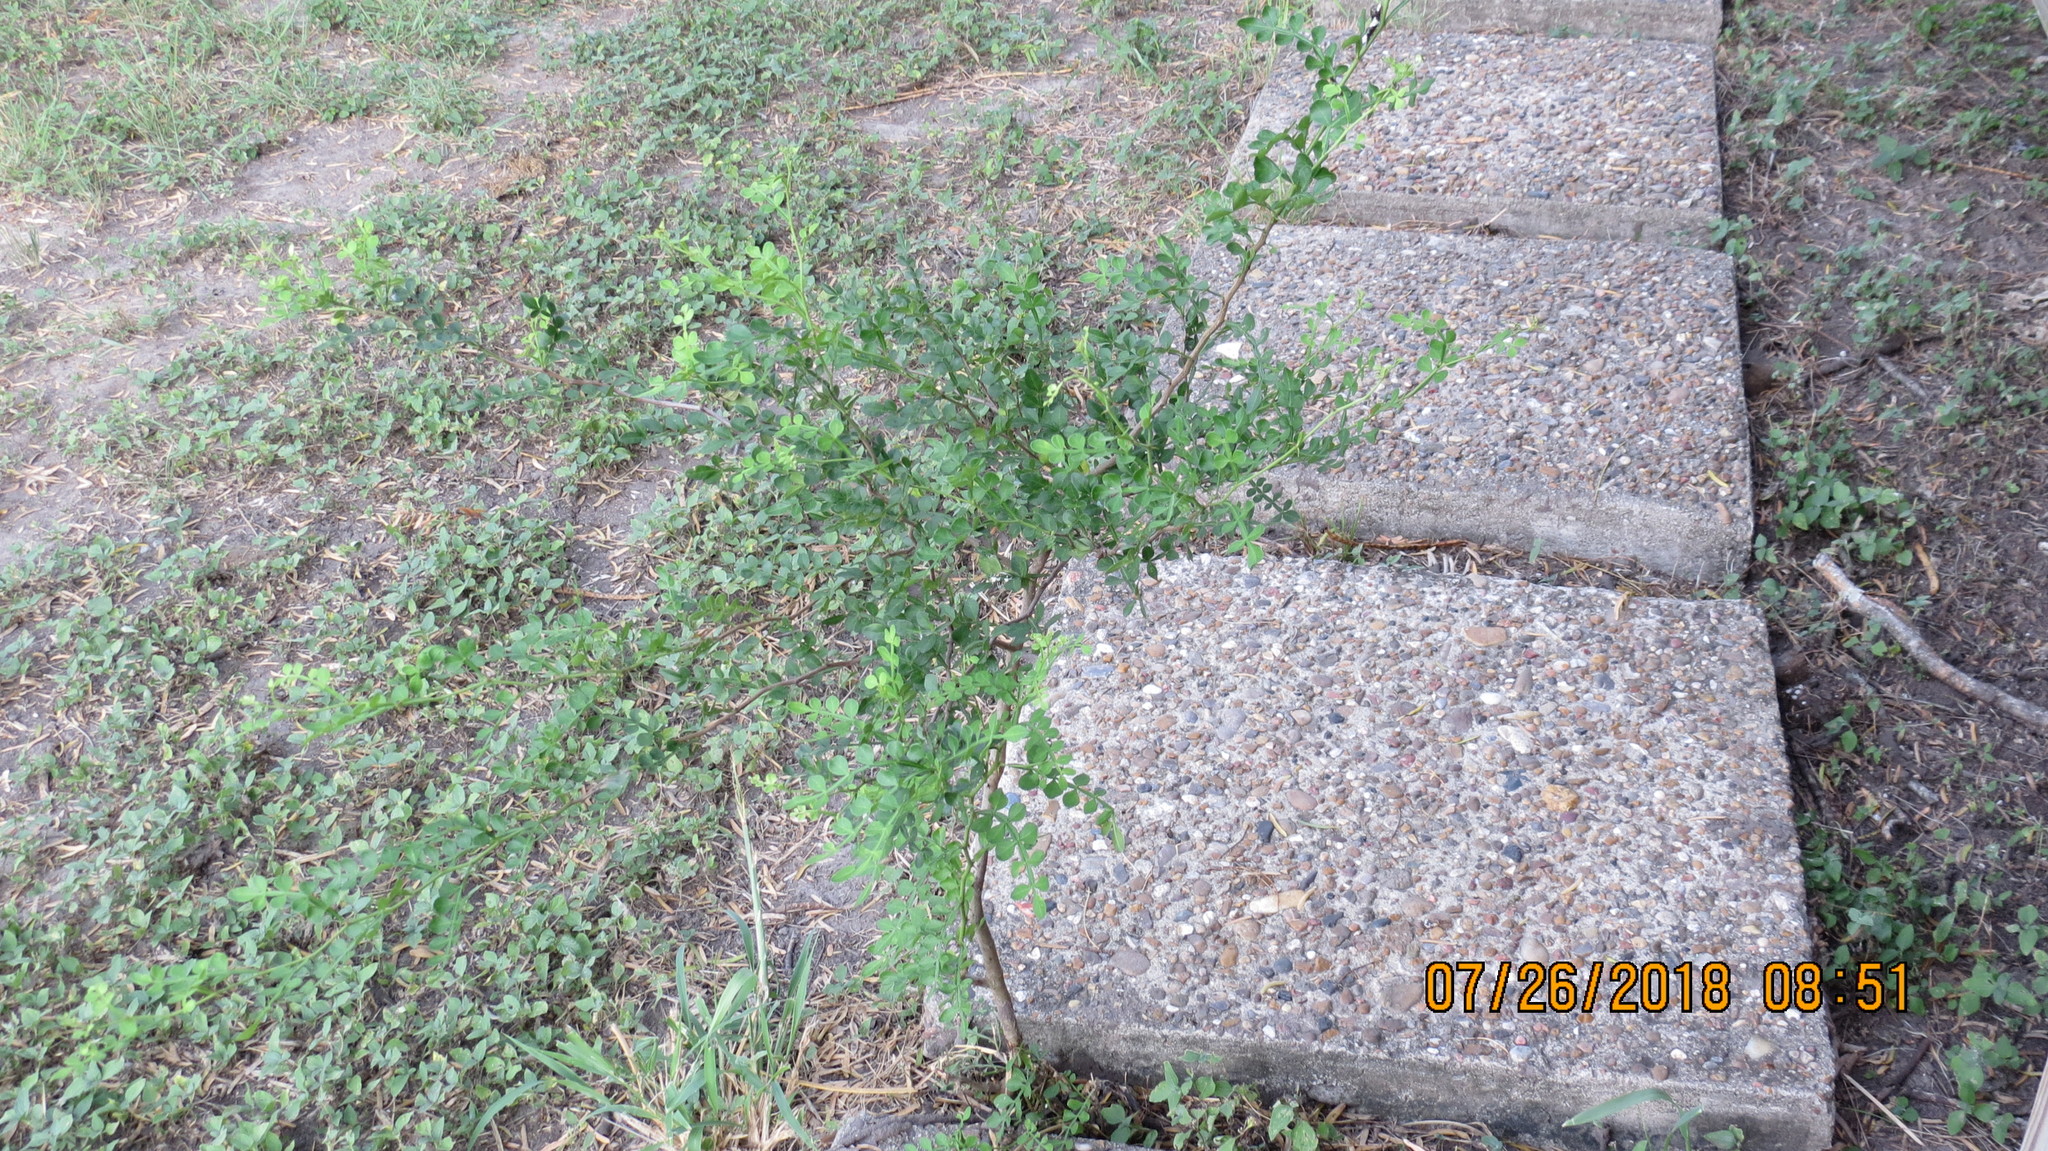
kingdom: Plantae
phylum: Tracheophyta
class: Magnoliopsida
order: Sapindales
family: Rutaceae
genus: Zanthoxylum
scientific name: Zanthoxylum fagara
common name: Lime prickly-ash
